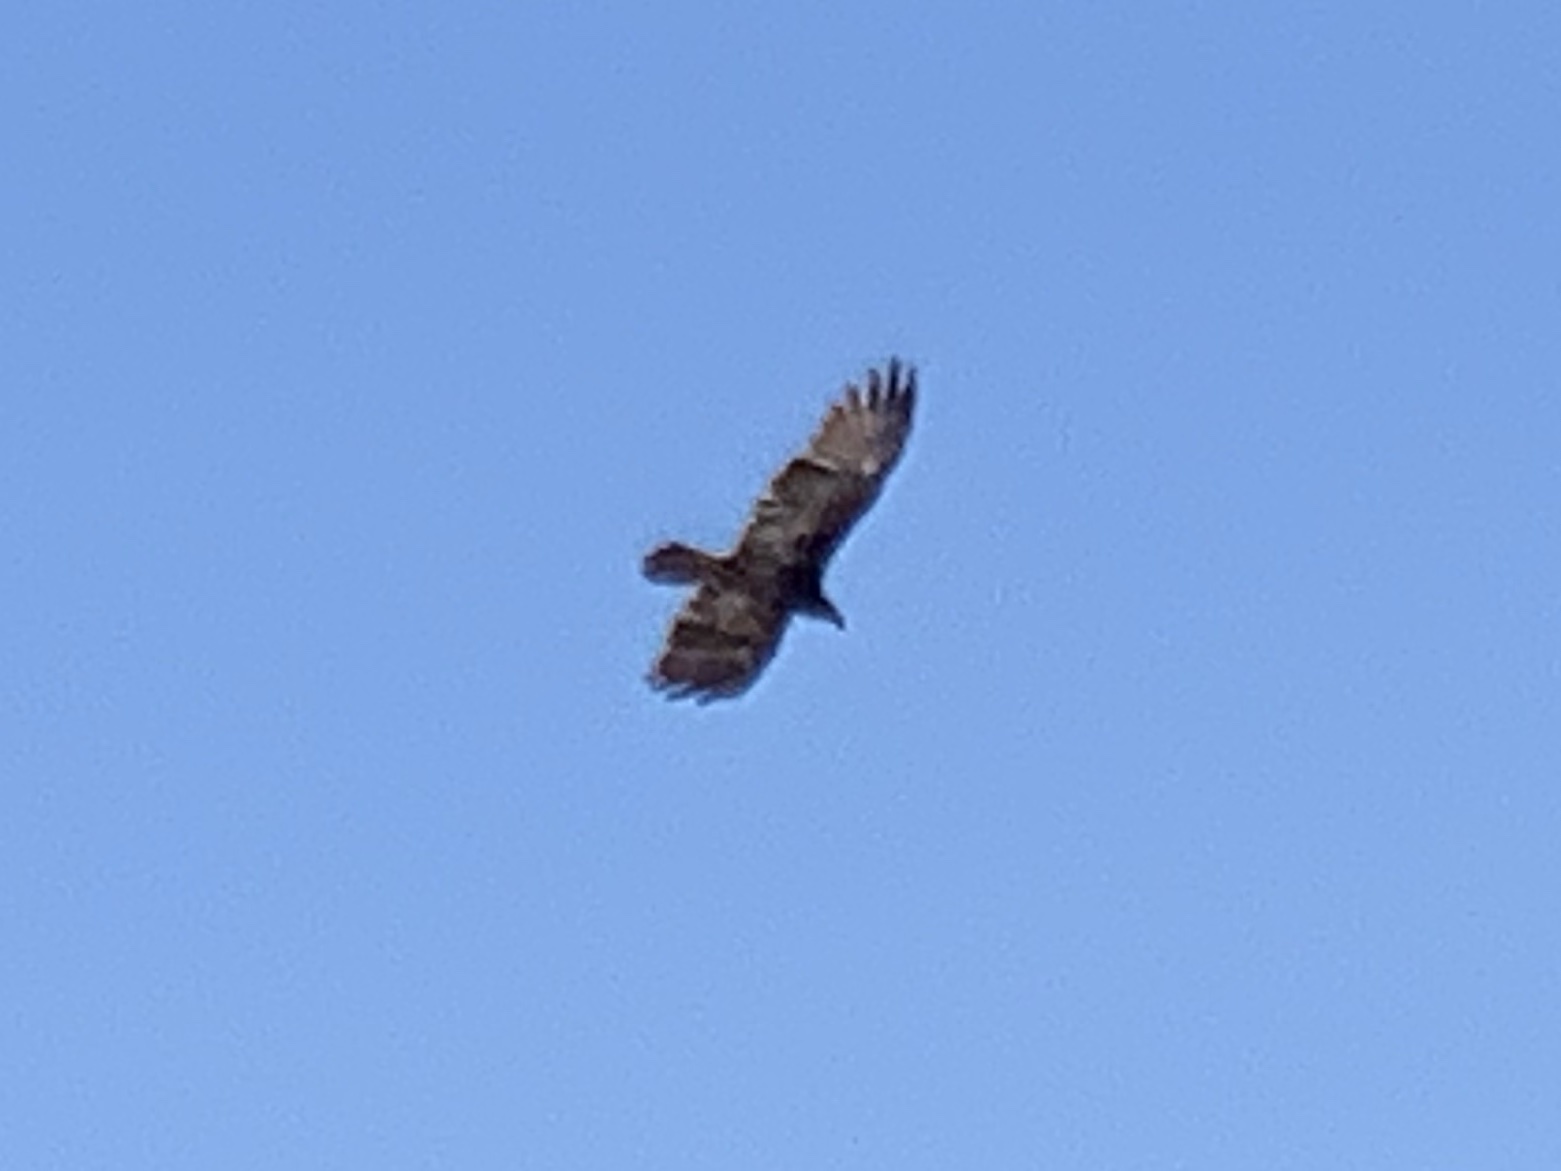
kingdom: Animalia
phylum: Chordata
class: Aves
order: Accipitriformes
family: Cathartidae
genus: Cathartes
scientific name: Cathartes aura
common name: Turkey vulture
